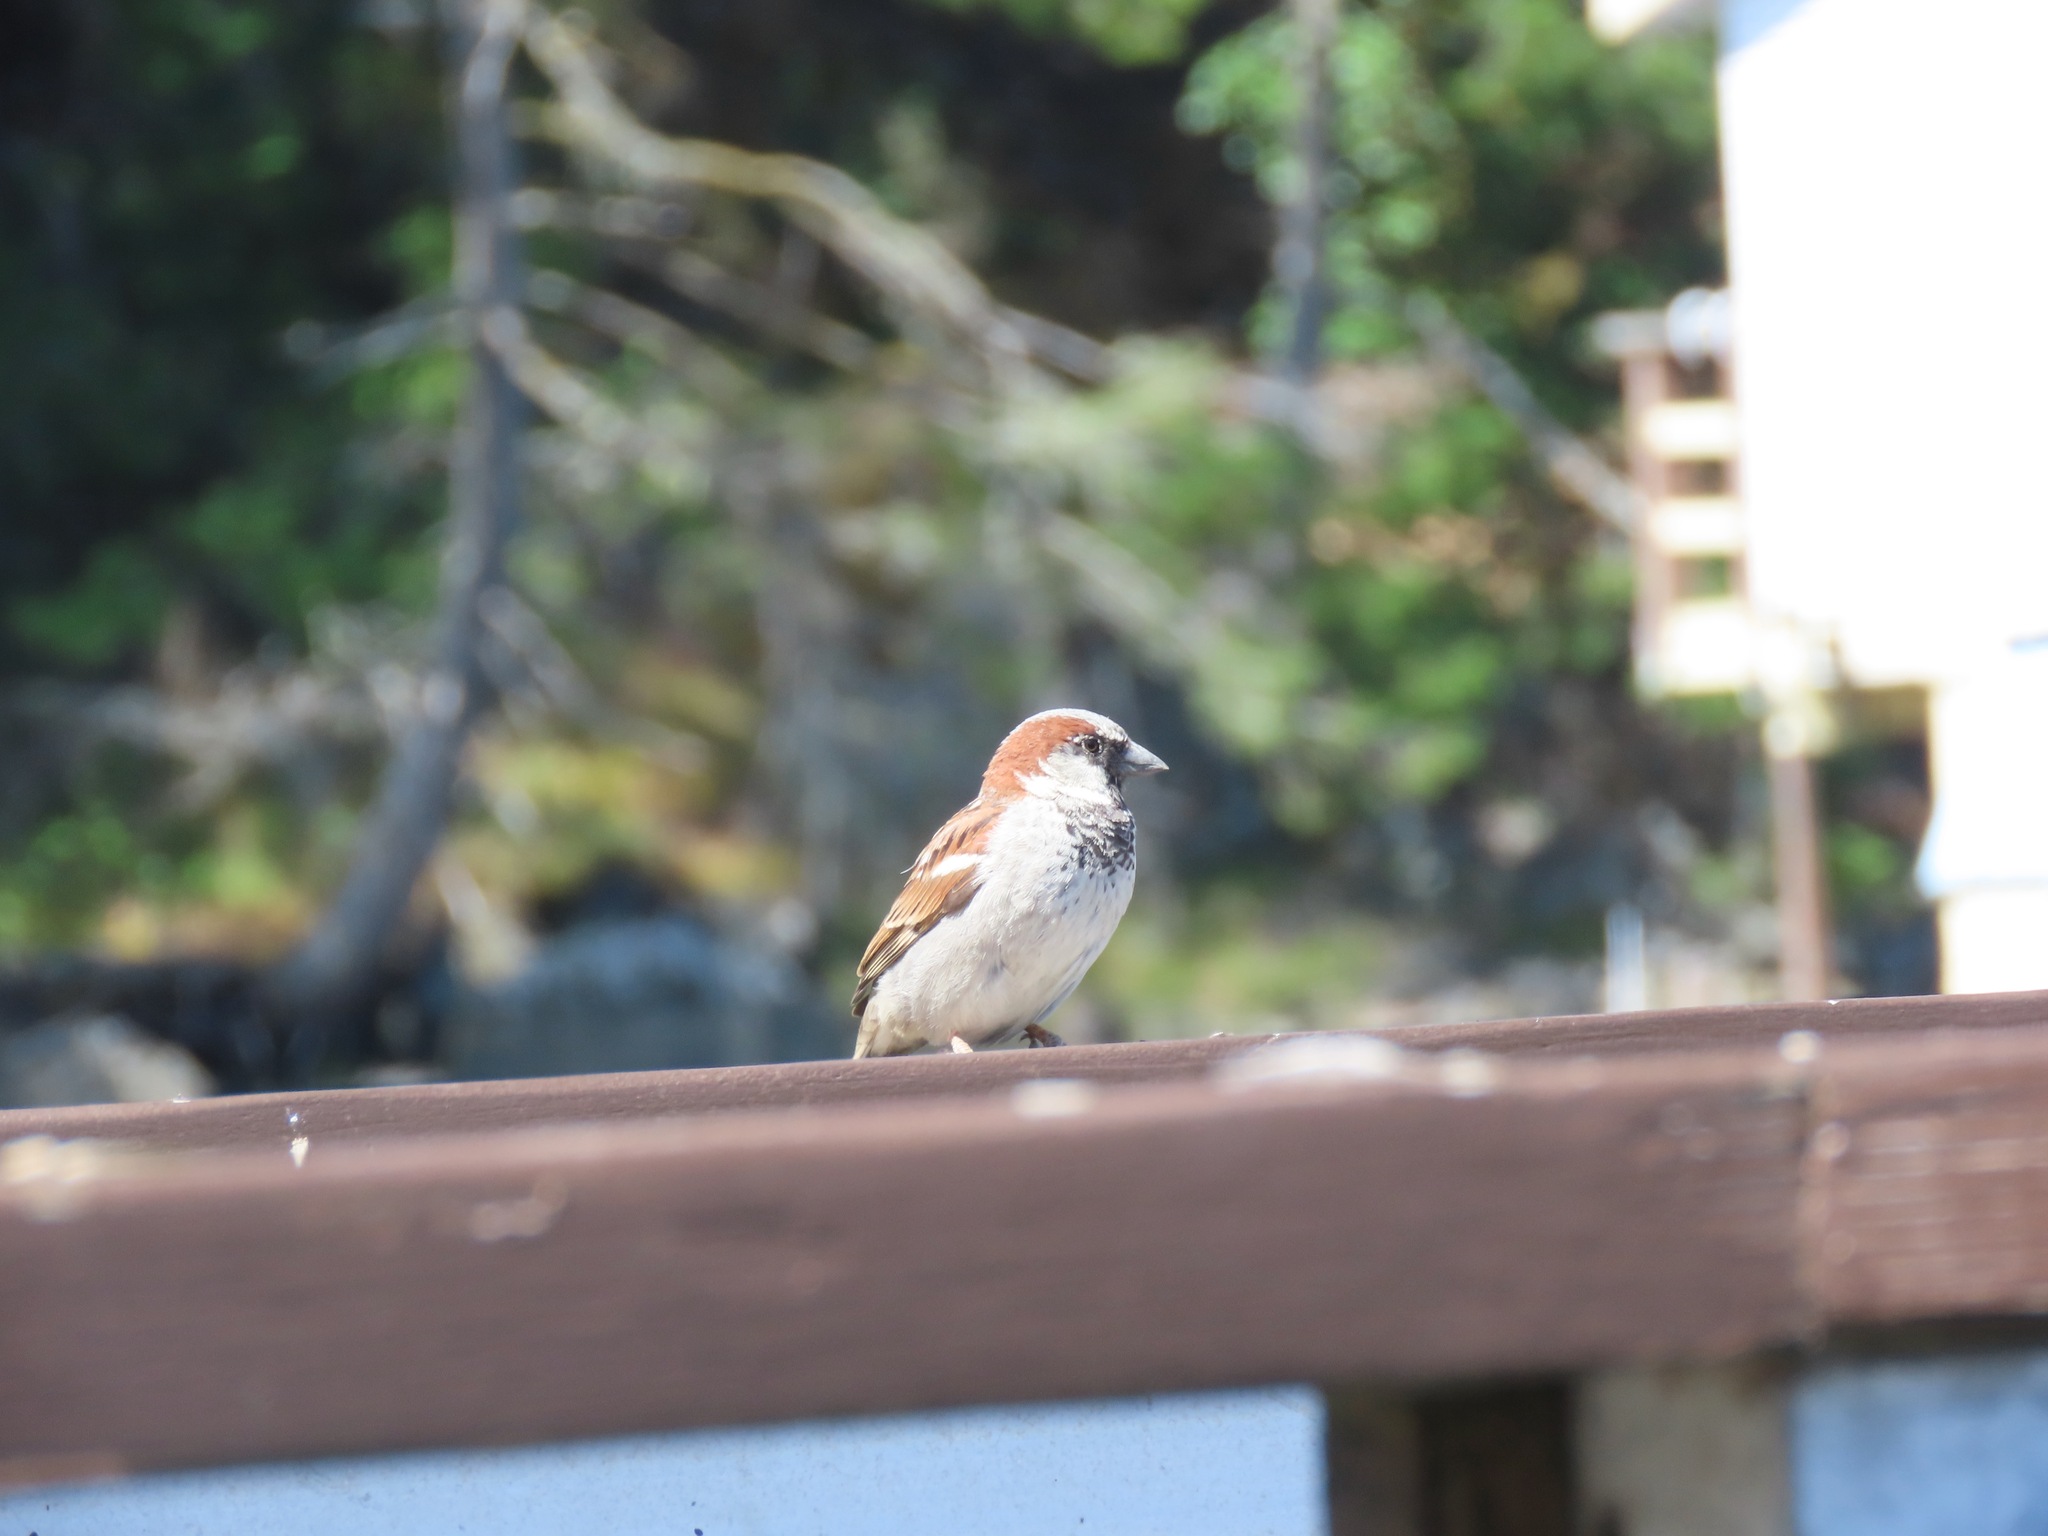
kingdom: Animalia
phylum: Chordata
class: Aves
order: Passeriformes
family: Passeridae
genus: Passer
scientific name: Passer domesticus
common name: House sparrow
